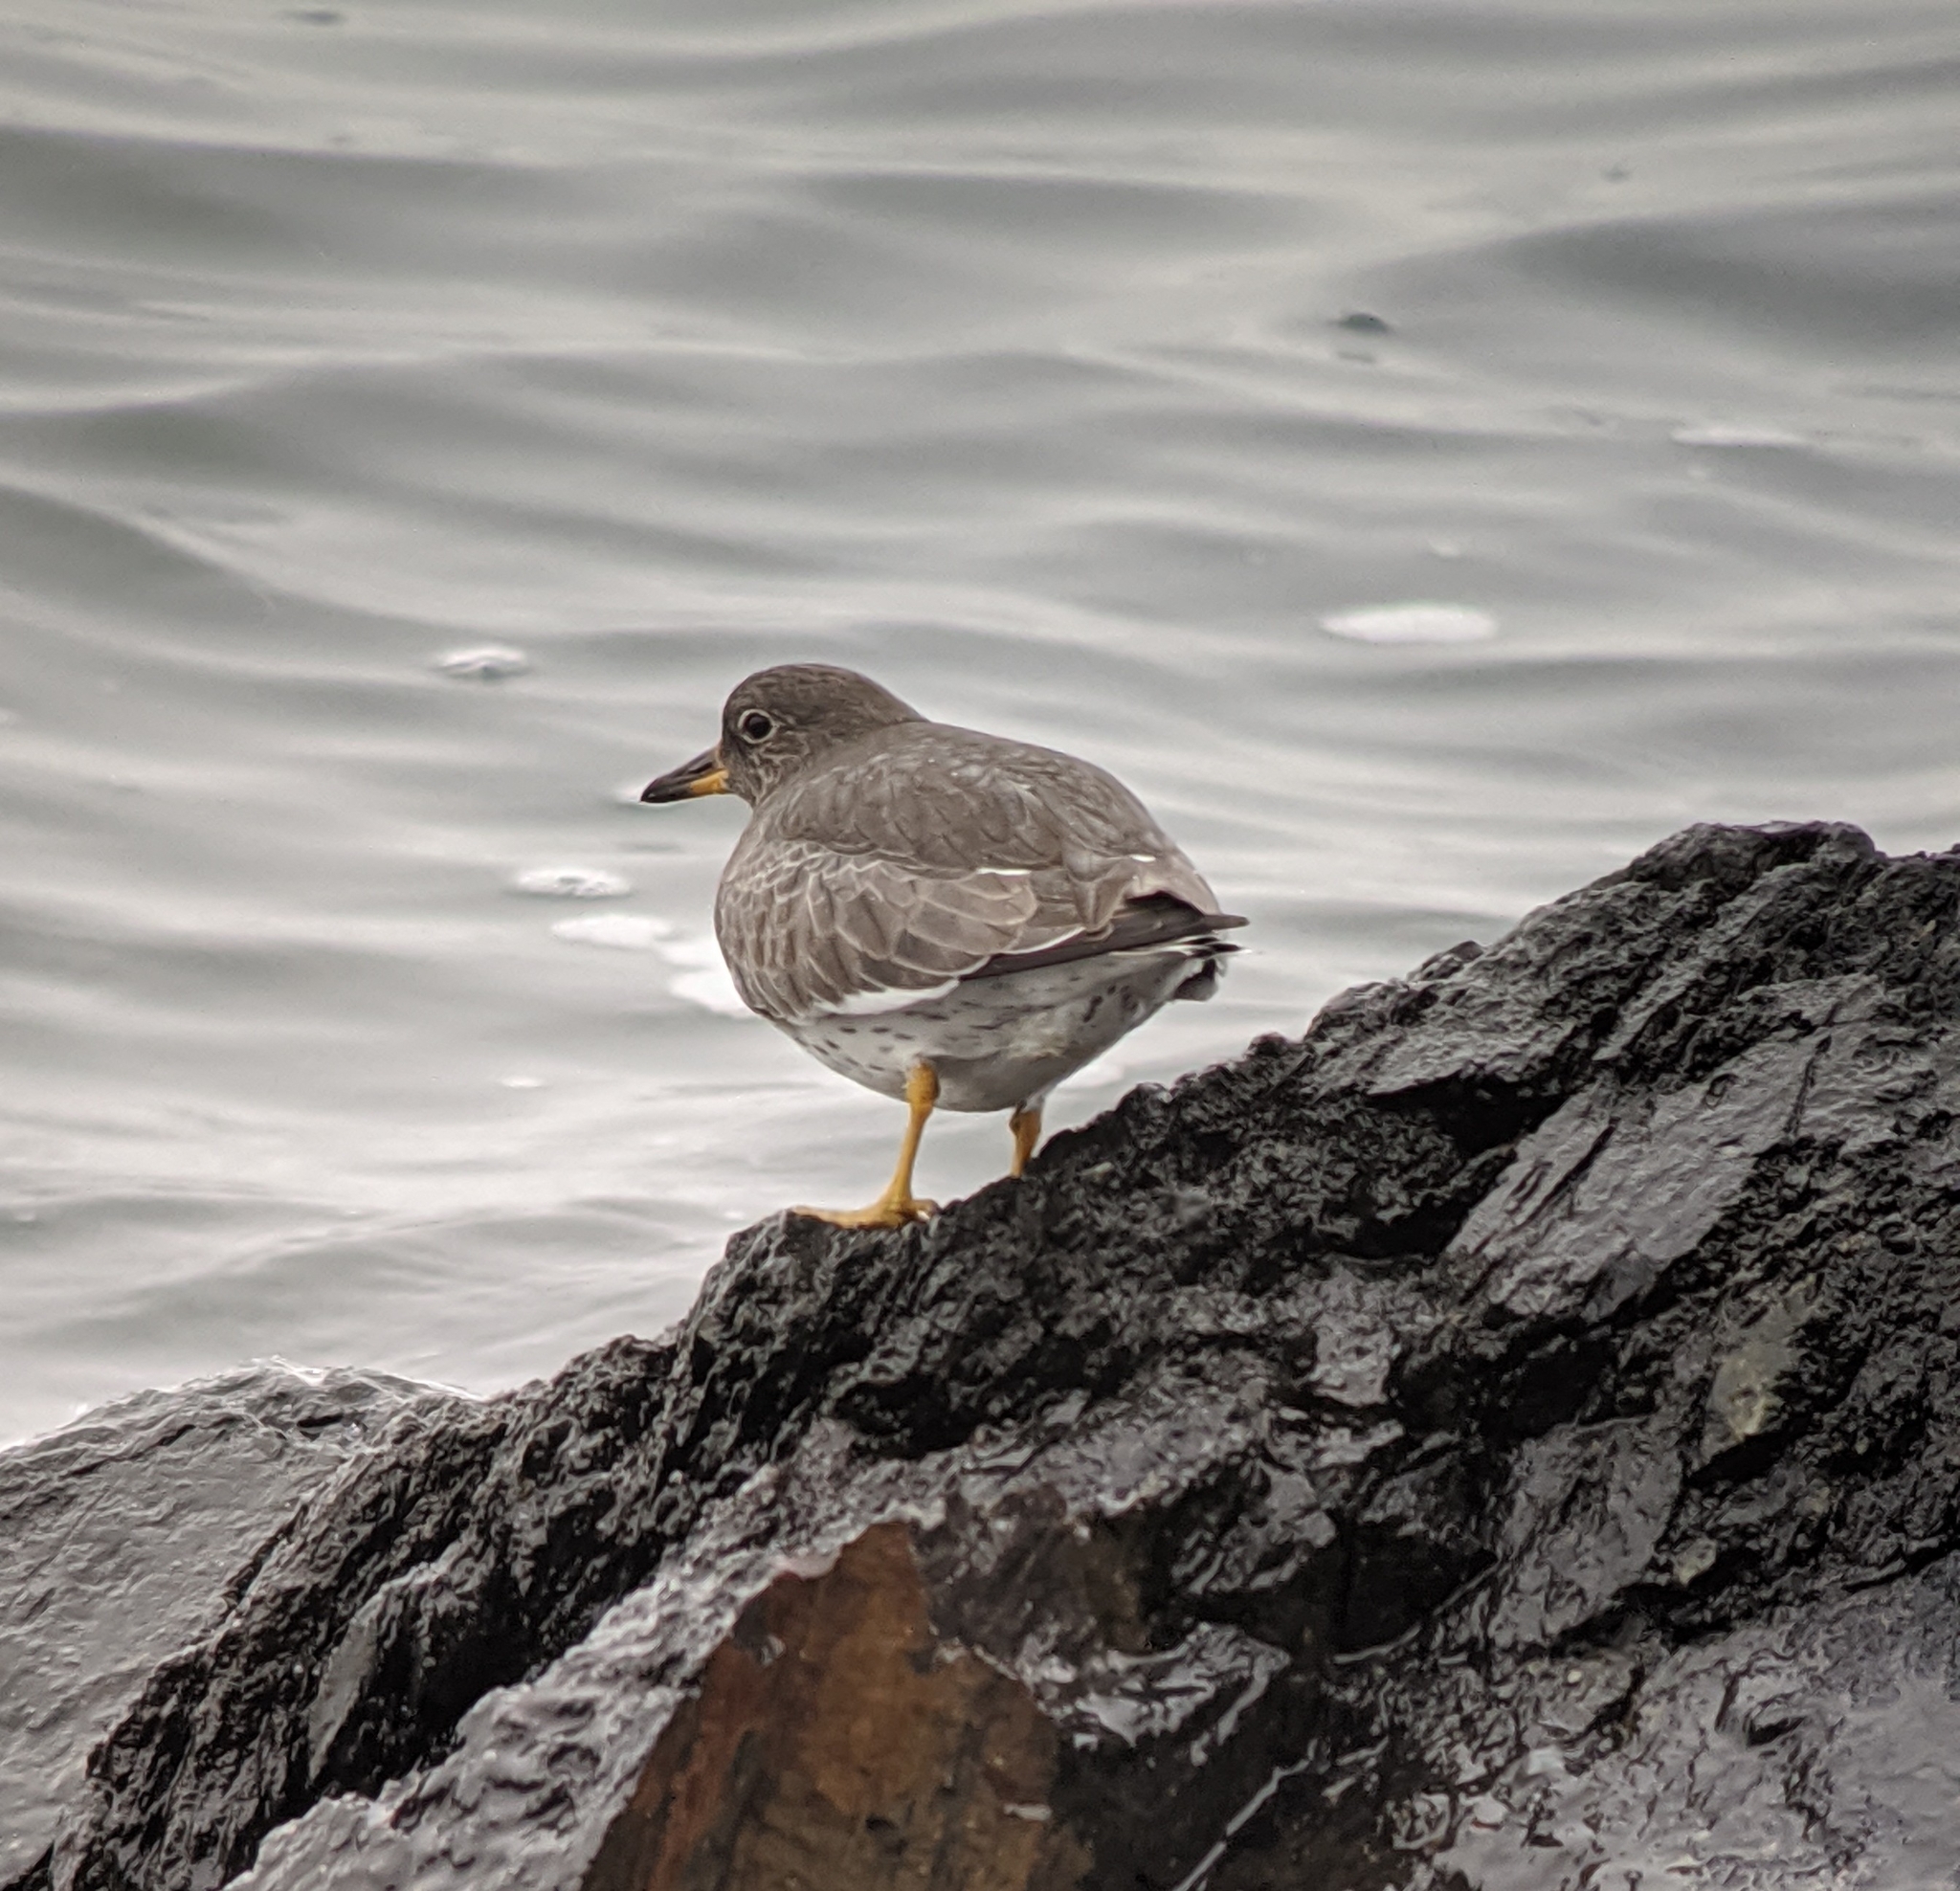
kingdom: Animalia
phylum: Chordata
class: Aves
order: Charadriiformes
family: Scolopacidae
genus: Calidris
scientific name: Calidris virgata
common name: Surfbird
